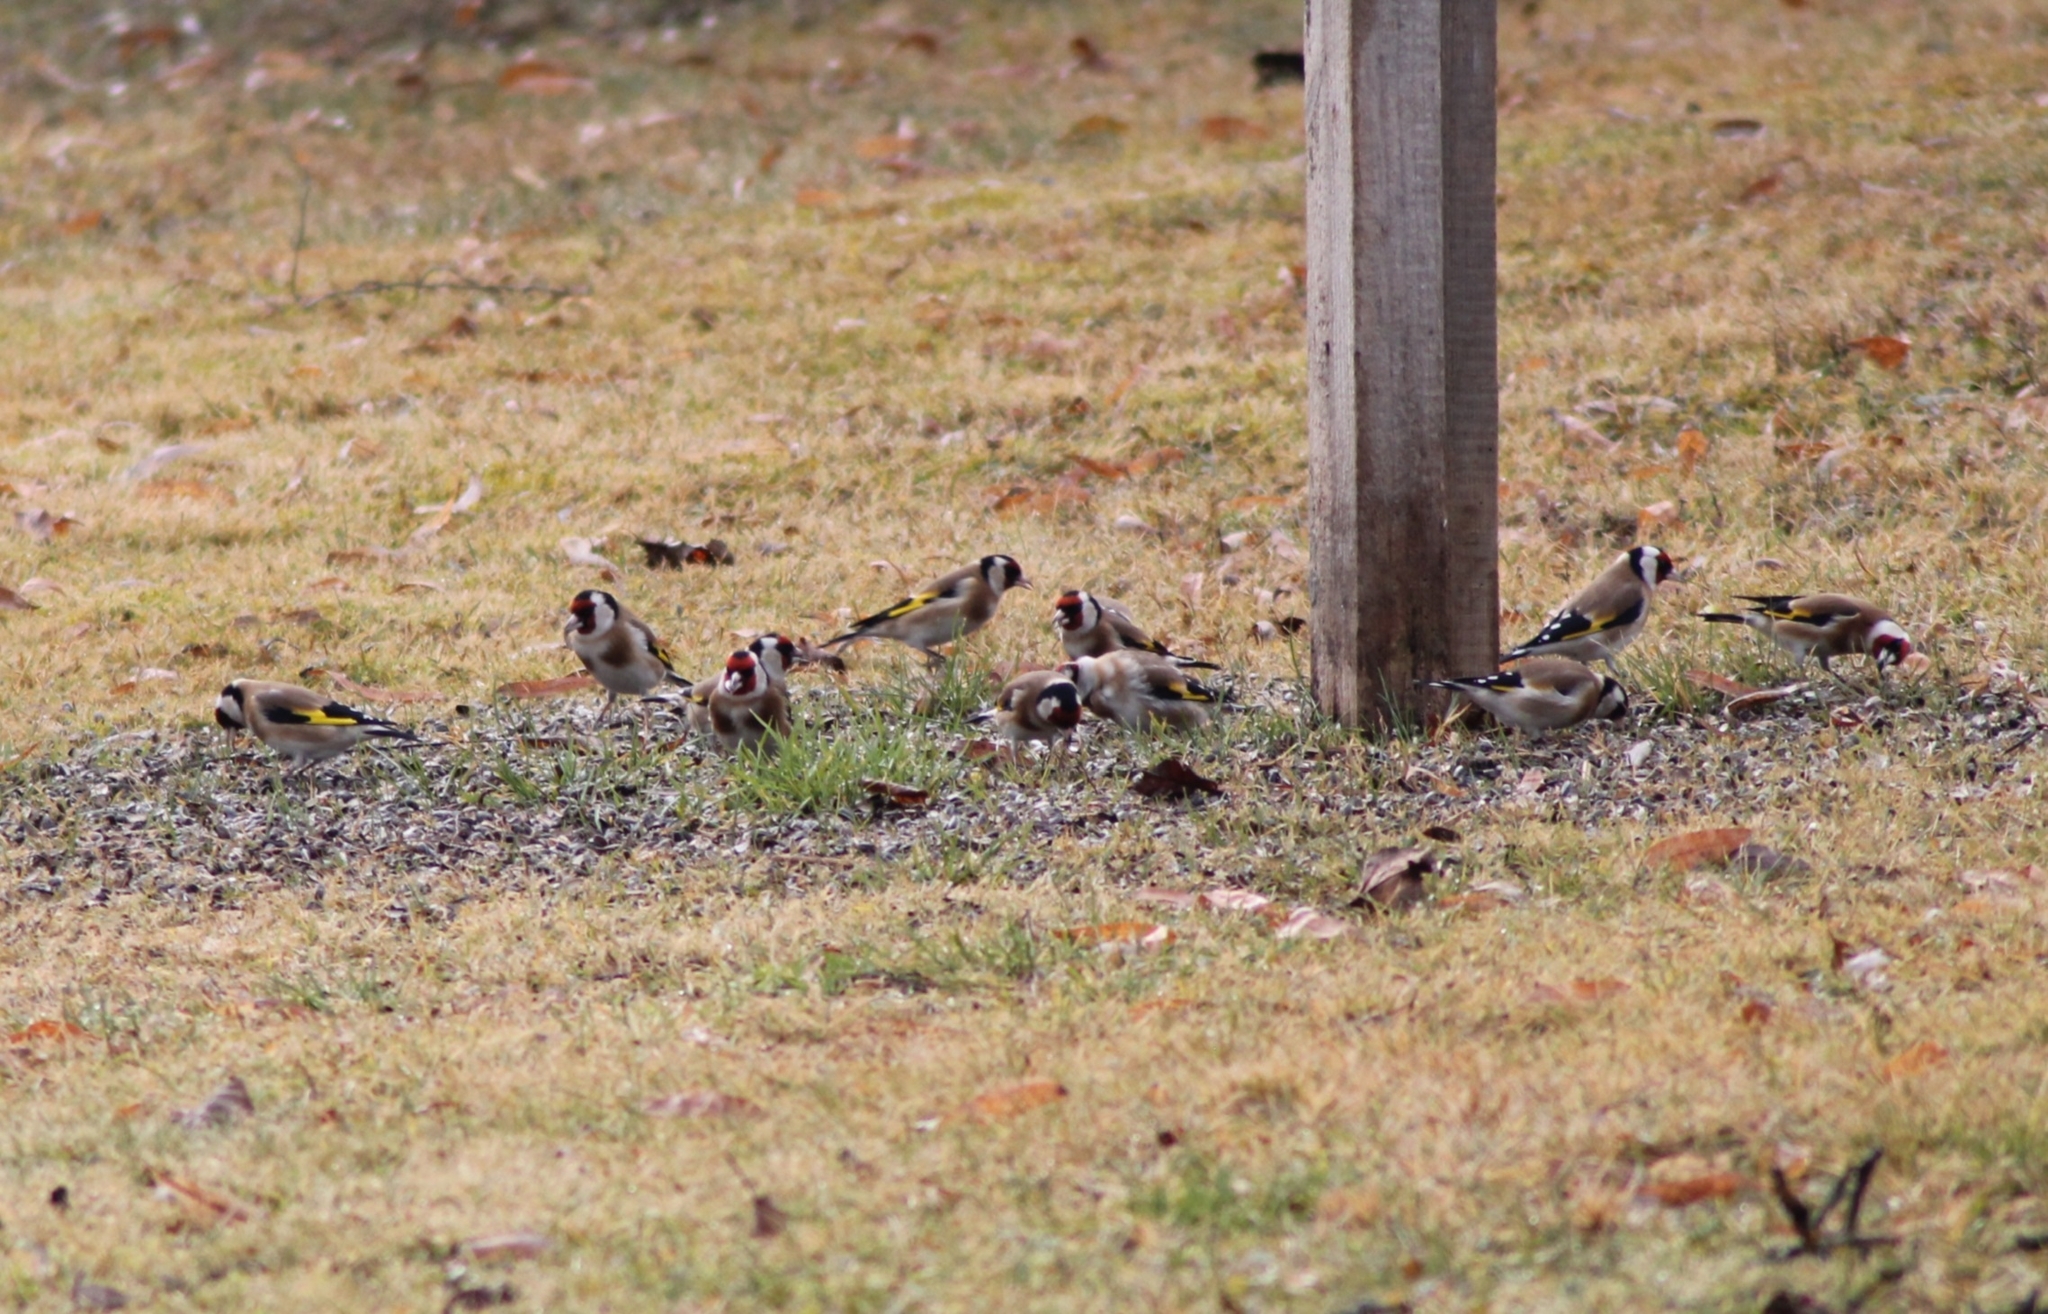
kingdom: Animalia
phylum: Chordata
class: Aves
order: Passeriformes
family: Fringillidae
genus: Carduelis
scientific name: Carduelis carduelis
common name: European goldfinch
